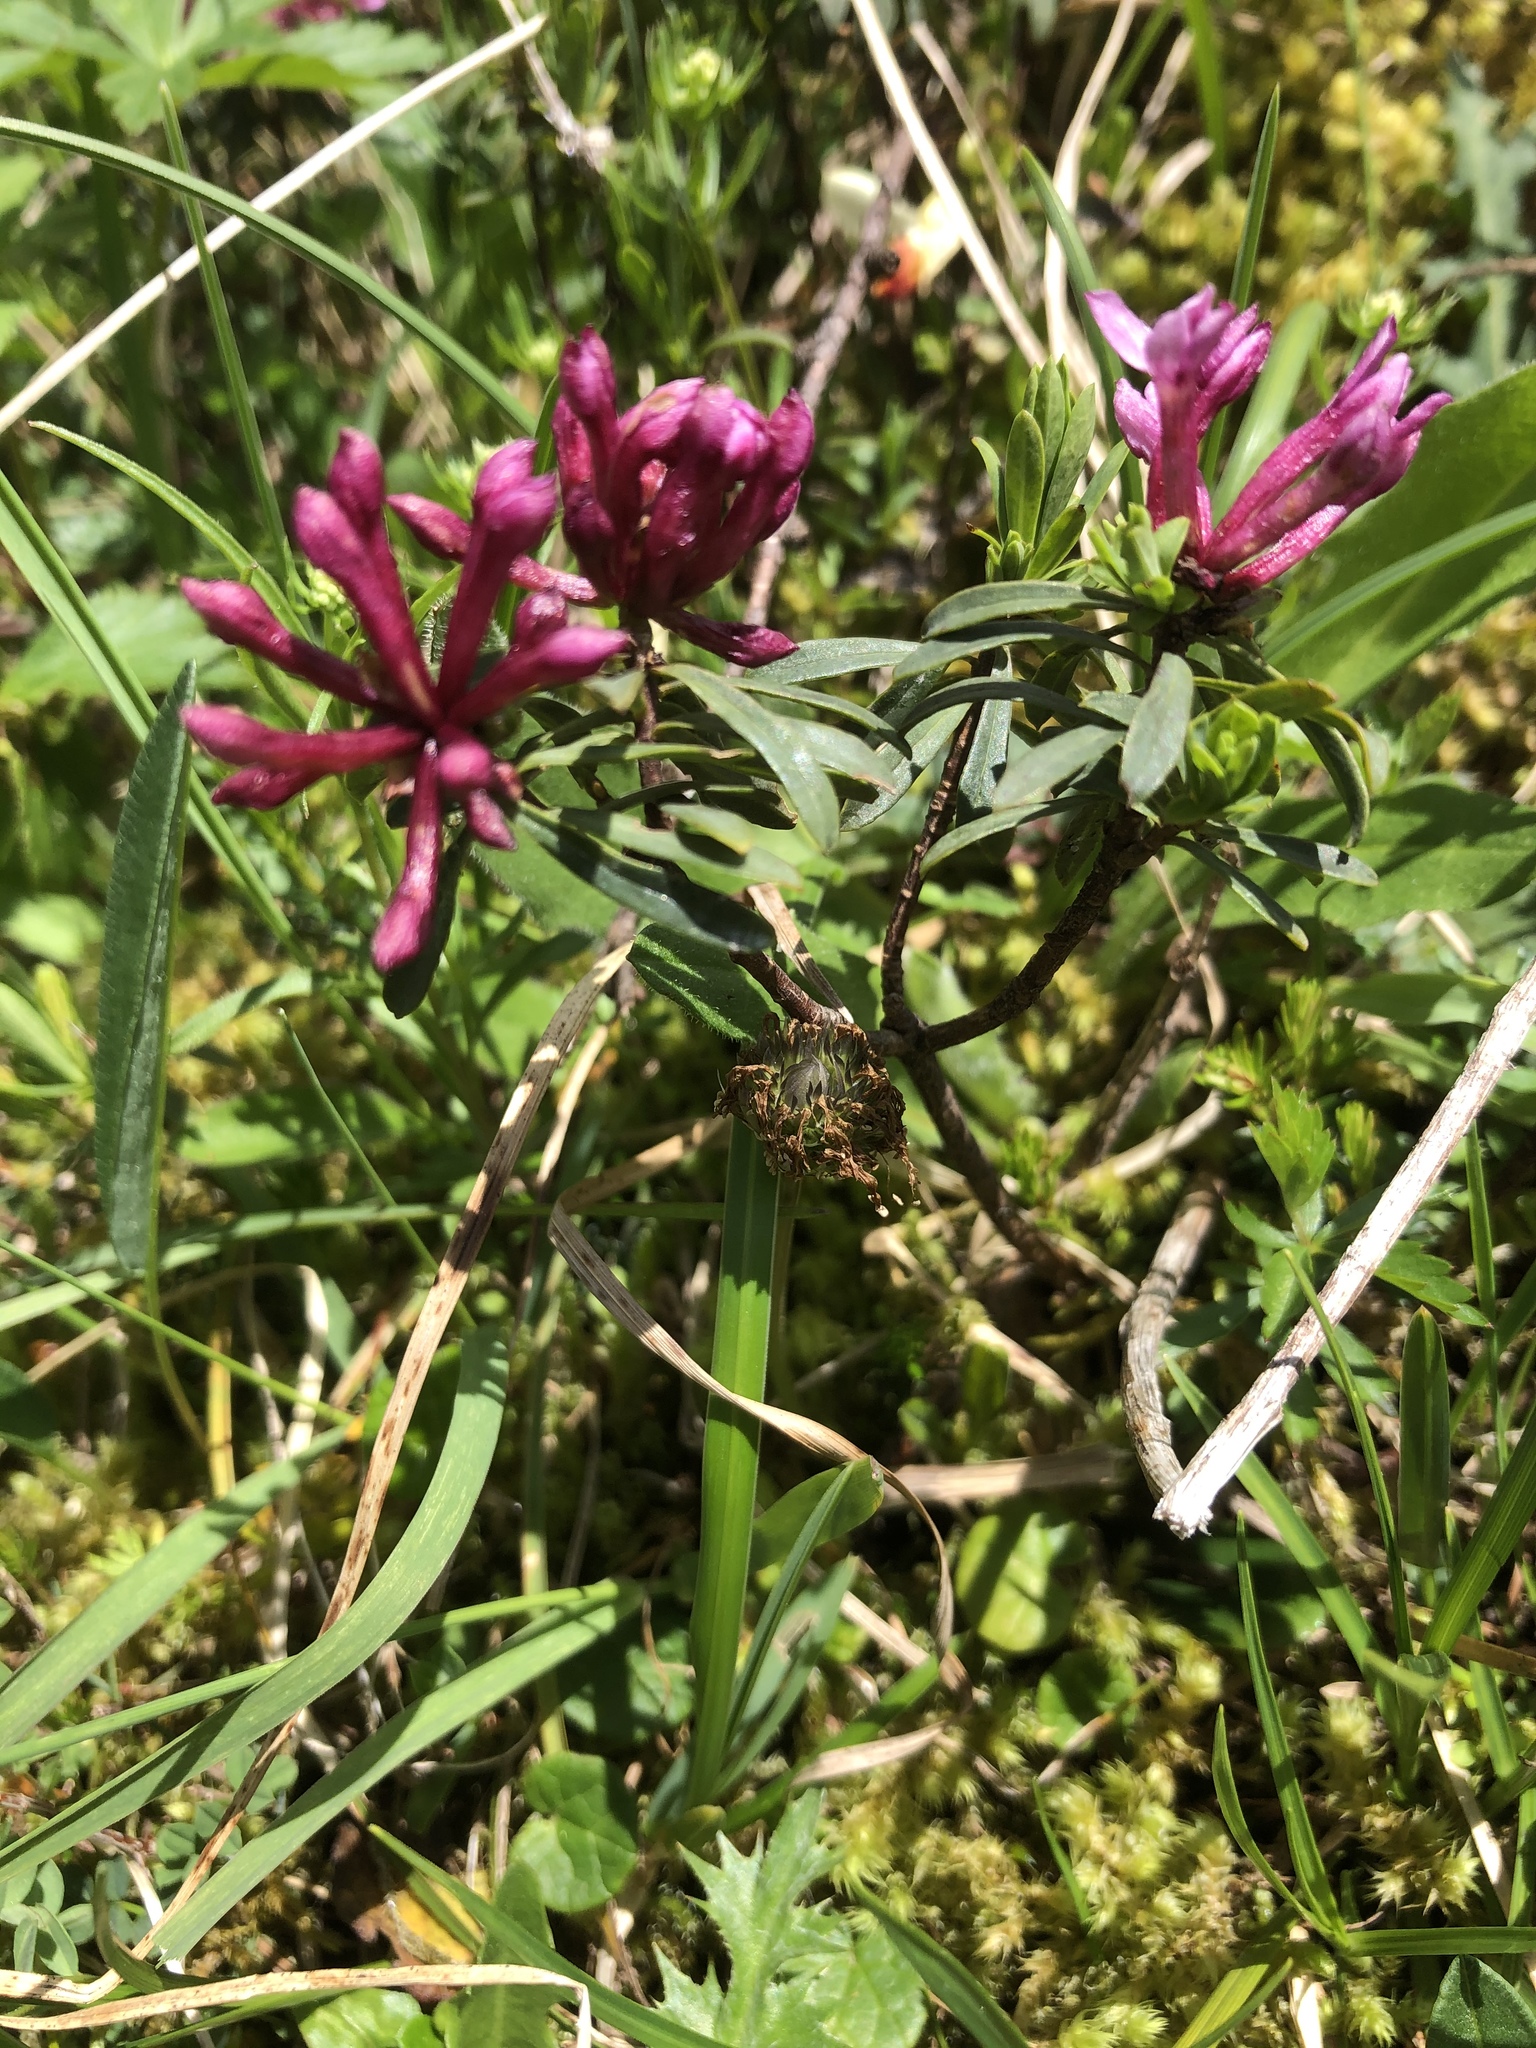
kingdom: Plantae
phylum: Tracheophyta
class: Magnoliopsida
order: Malvales
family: Thymelaeaceae
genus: Daphne
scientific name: Daphne striata
